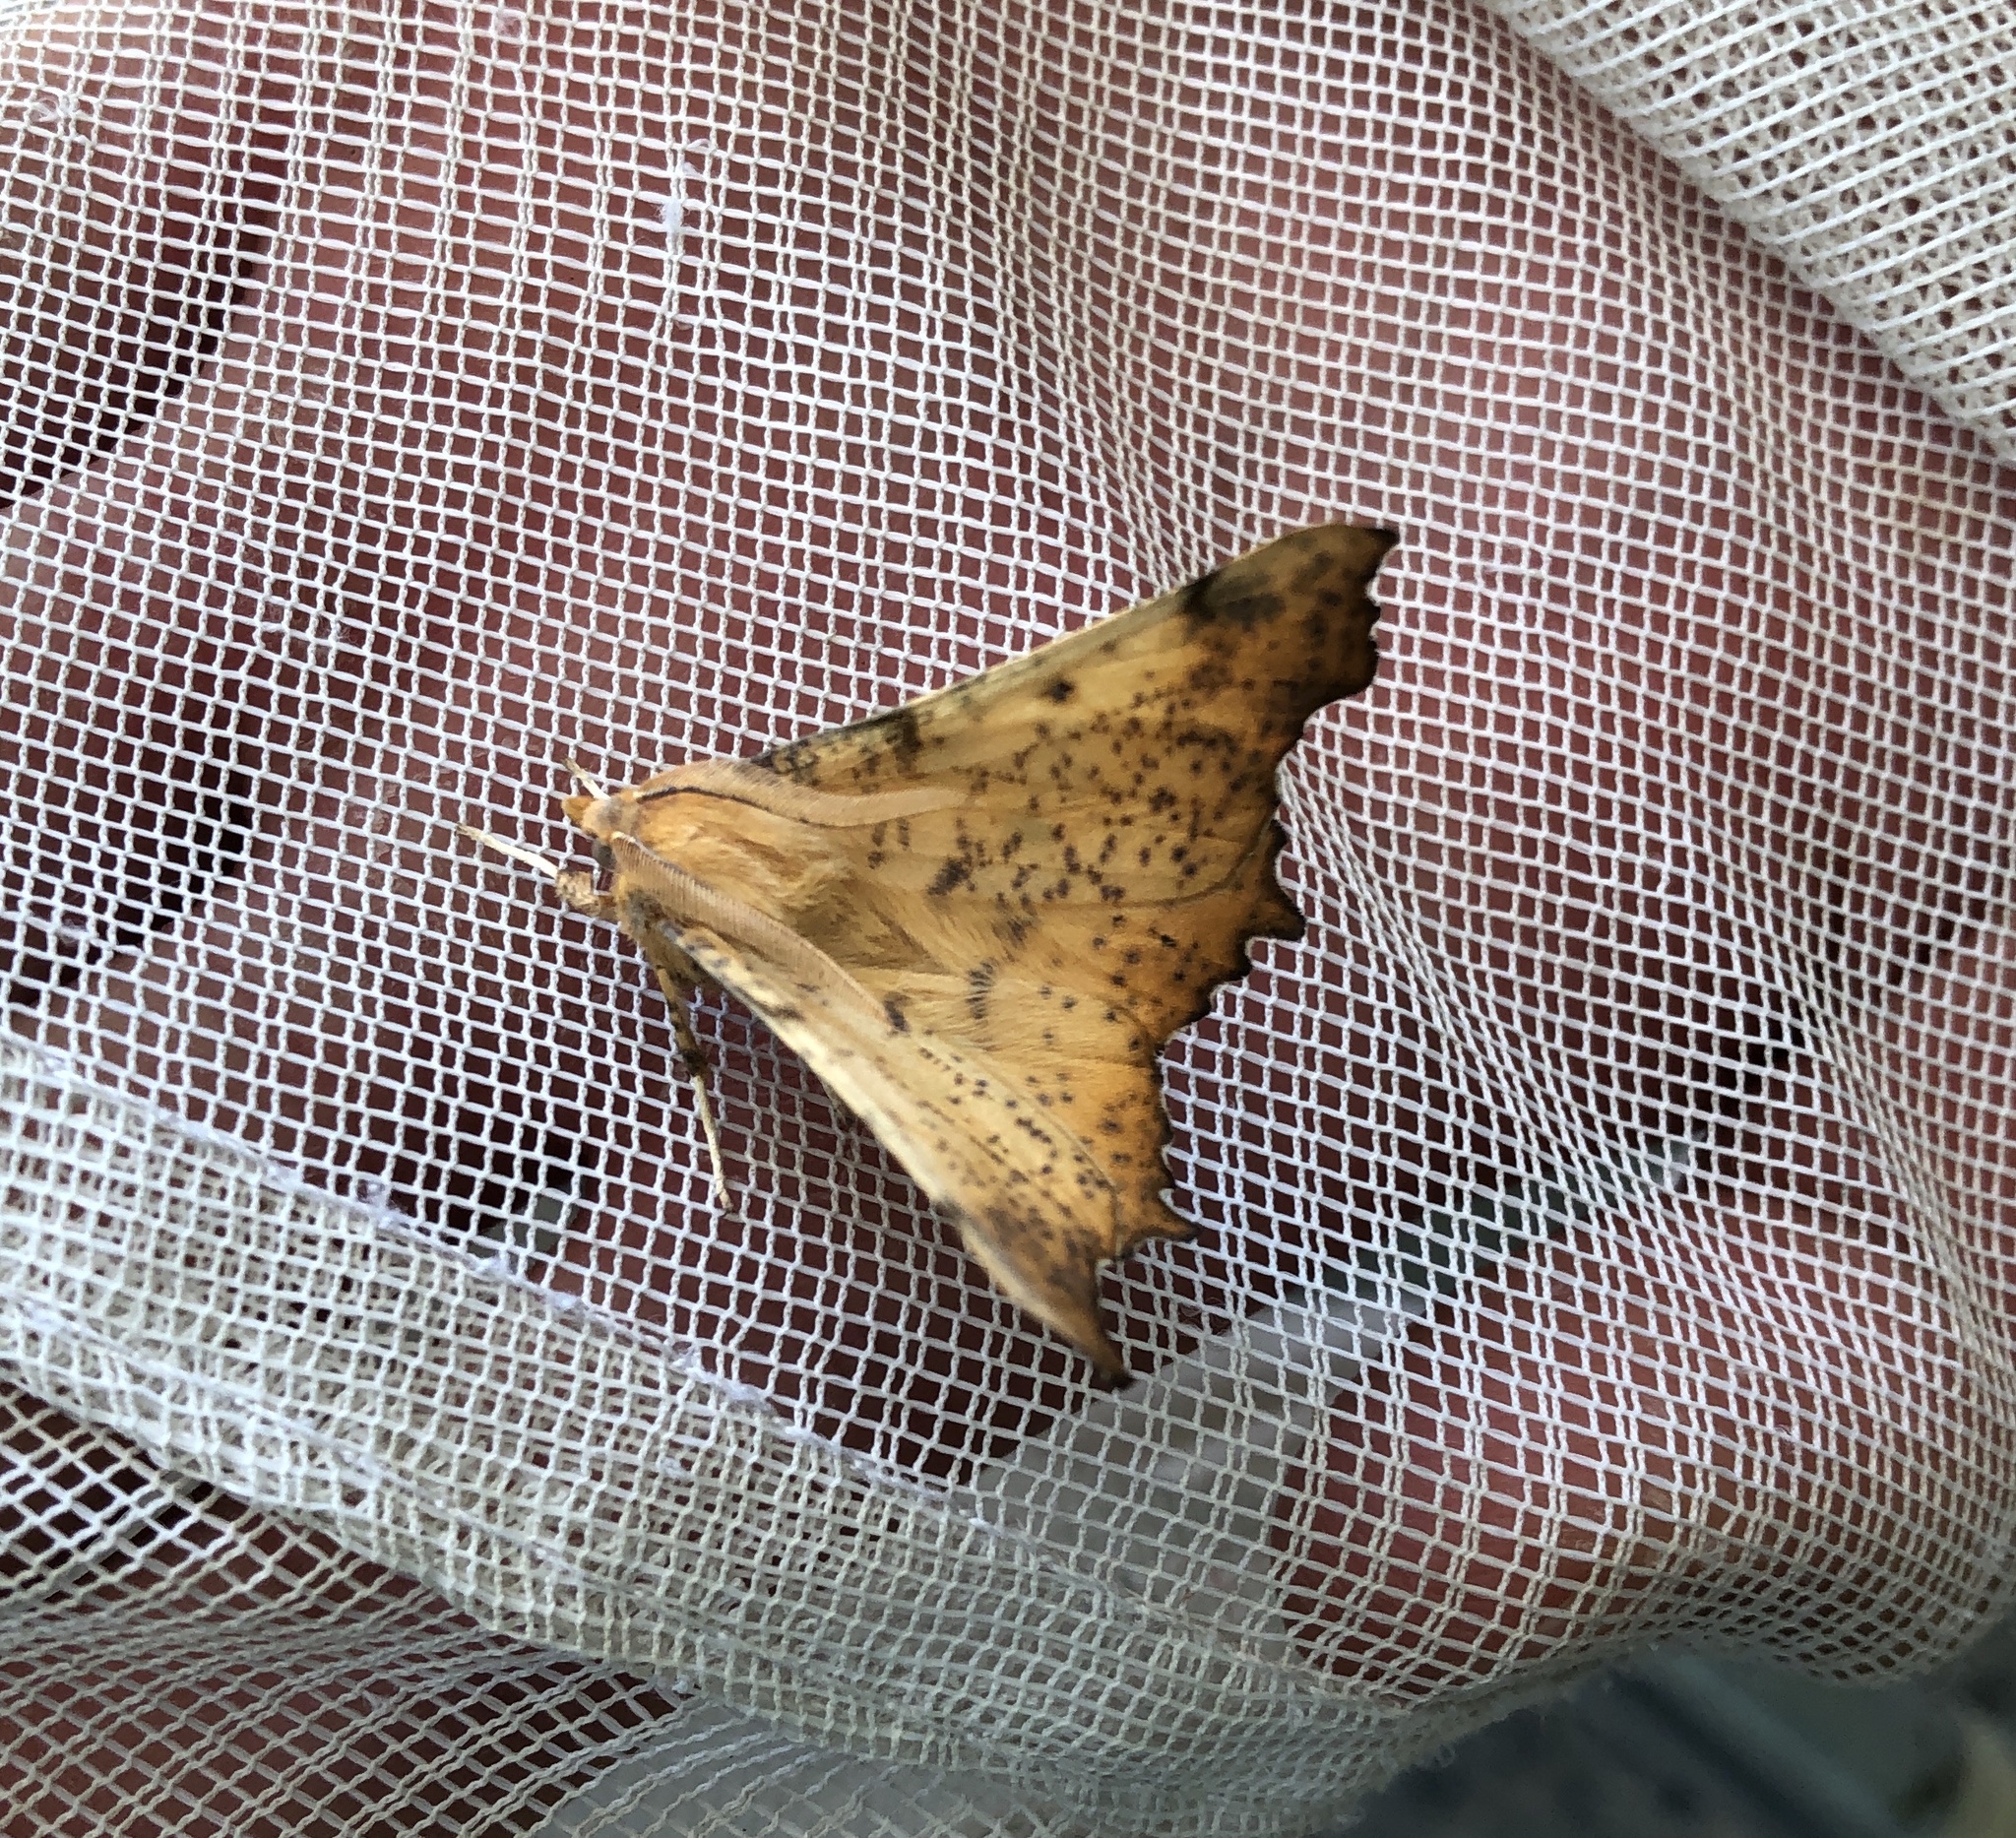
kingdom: Animalia
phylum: Arthropoda
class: Insecta
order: Lepidoptera
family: Geometridae
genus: Ennomos
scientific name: Ennomos magnaria
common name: Maple spanworm
